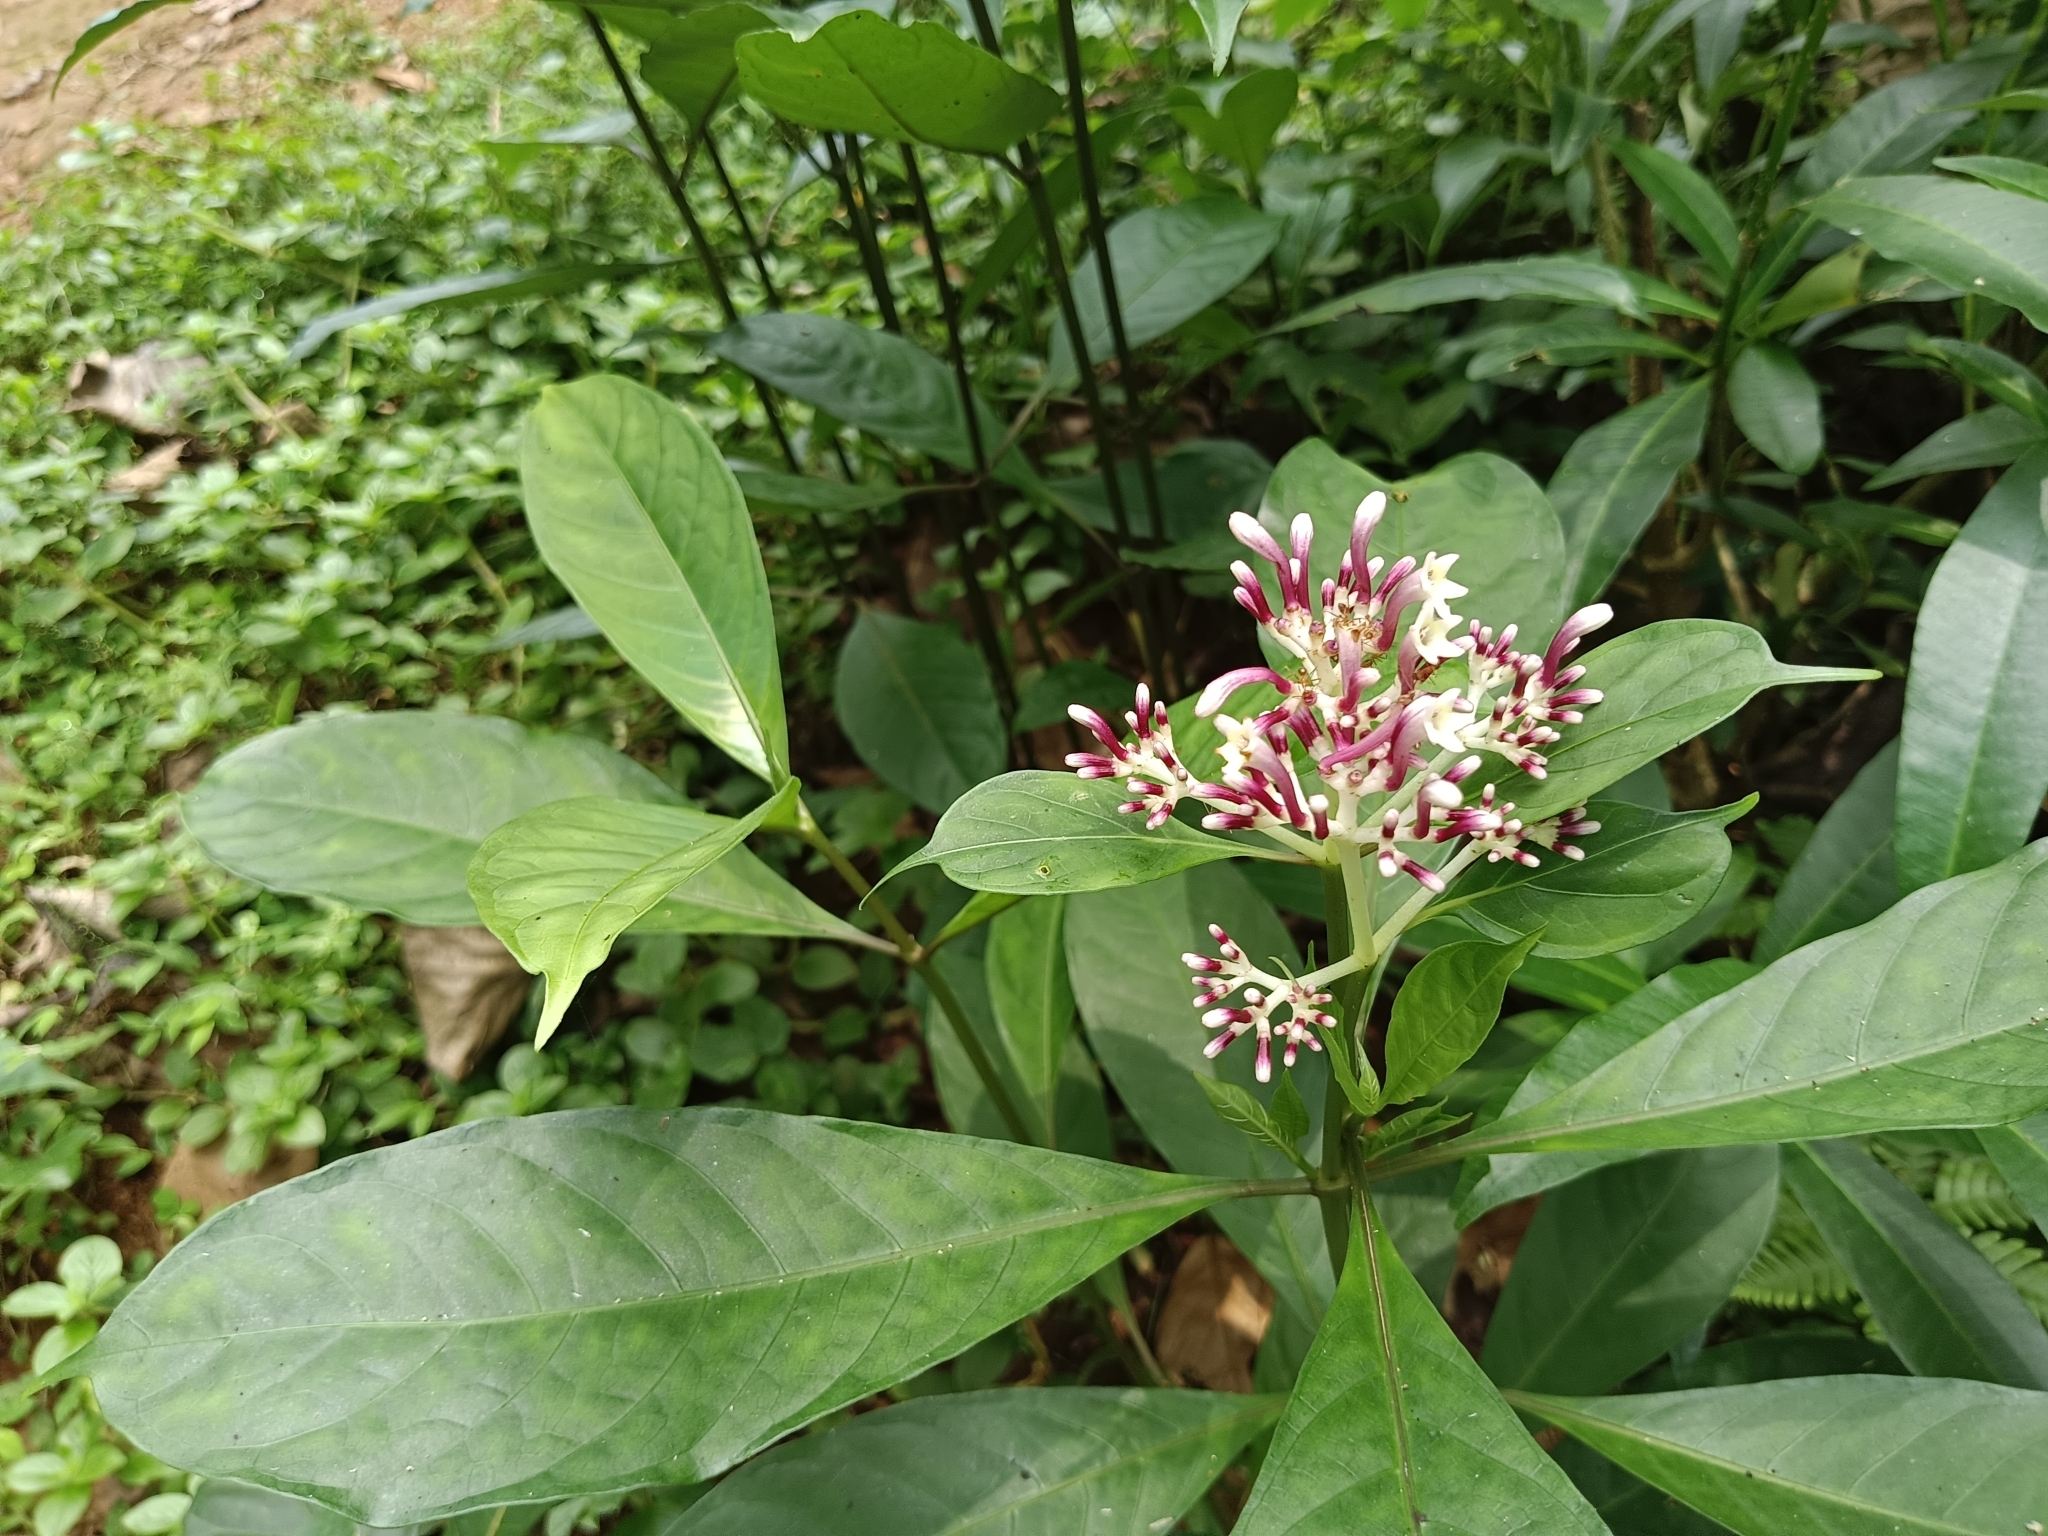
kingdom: Plantae
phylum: Tracheophyta
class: Magnoliopsida
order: Gentianales
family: Rubiaceae
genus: Chassalia
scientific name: Chassalia curviflora
